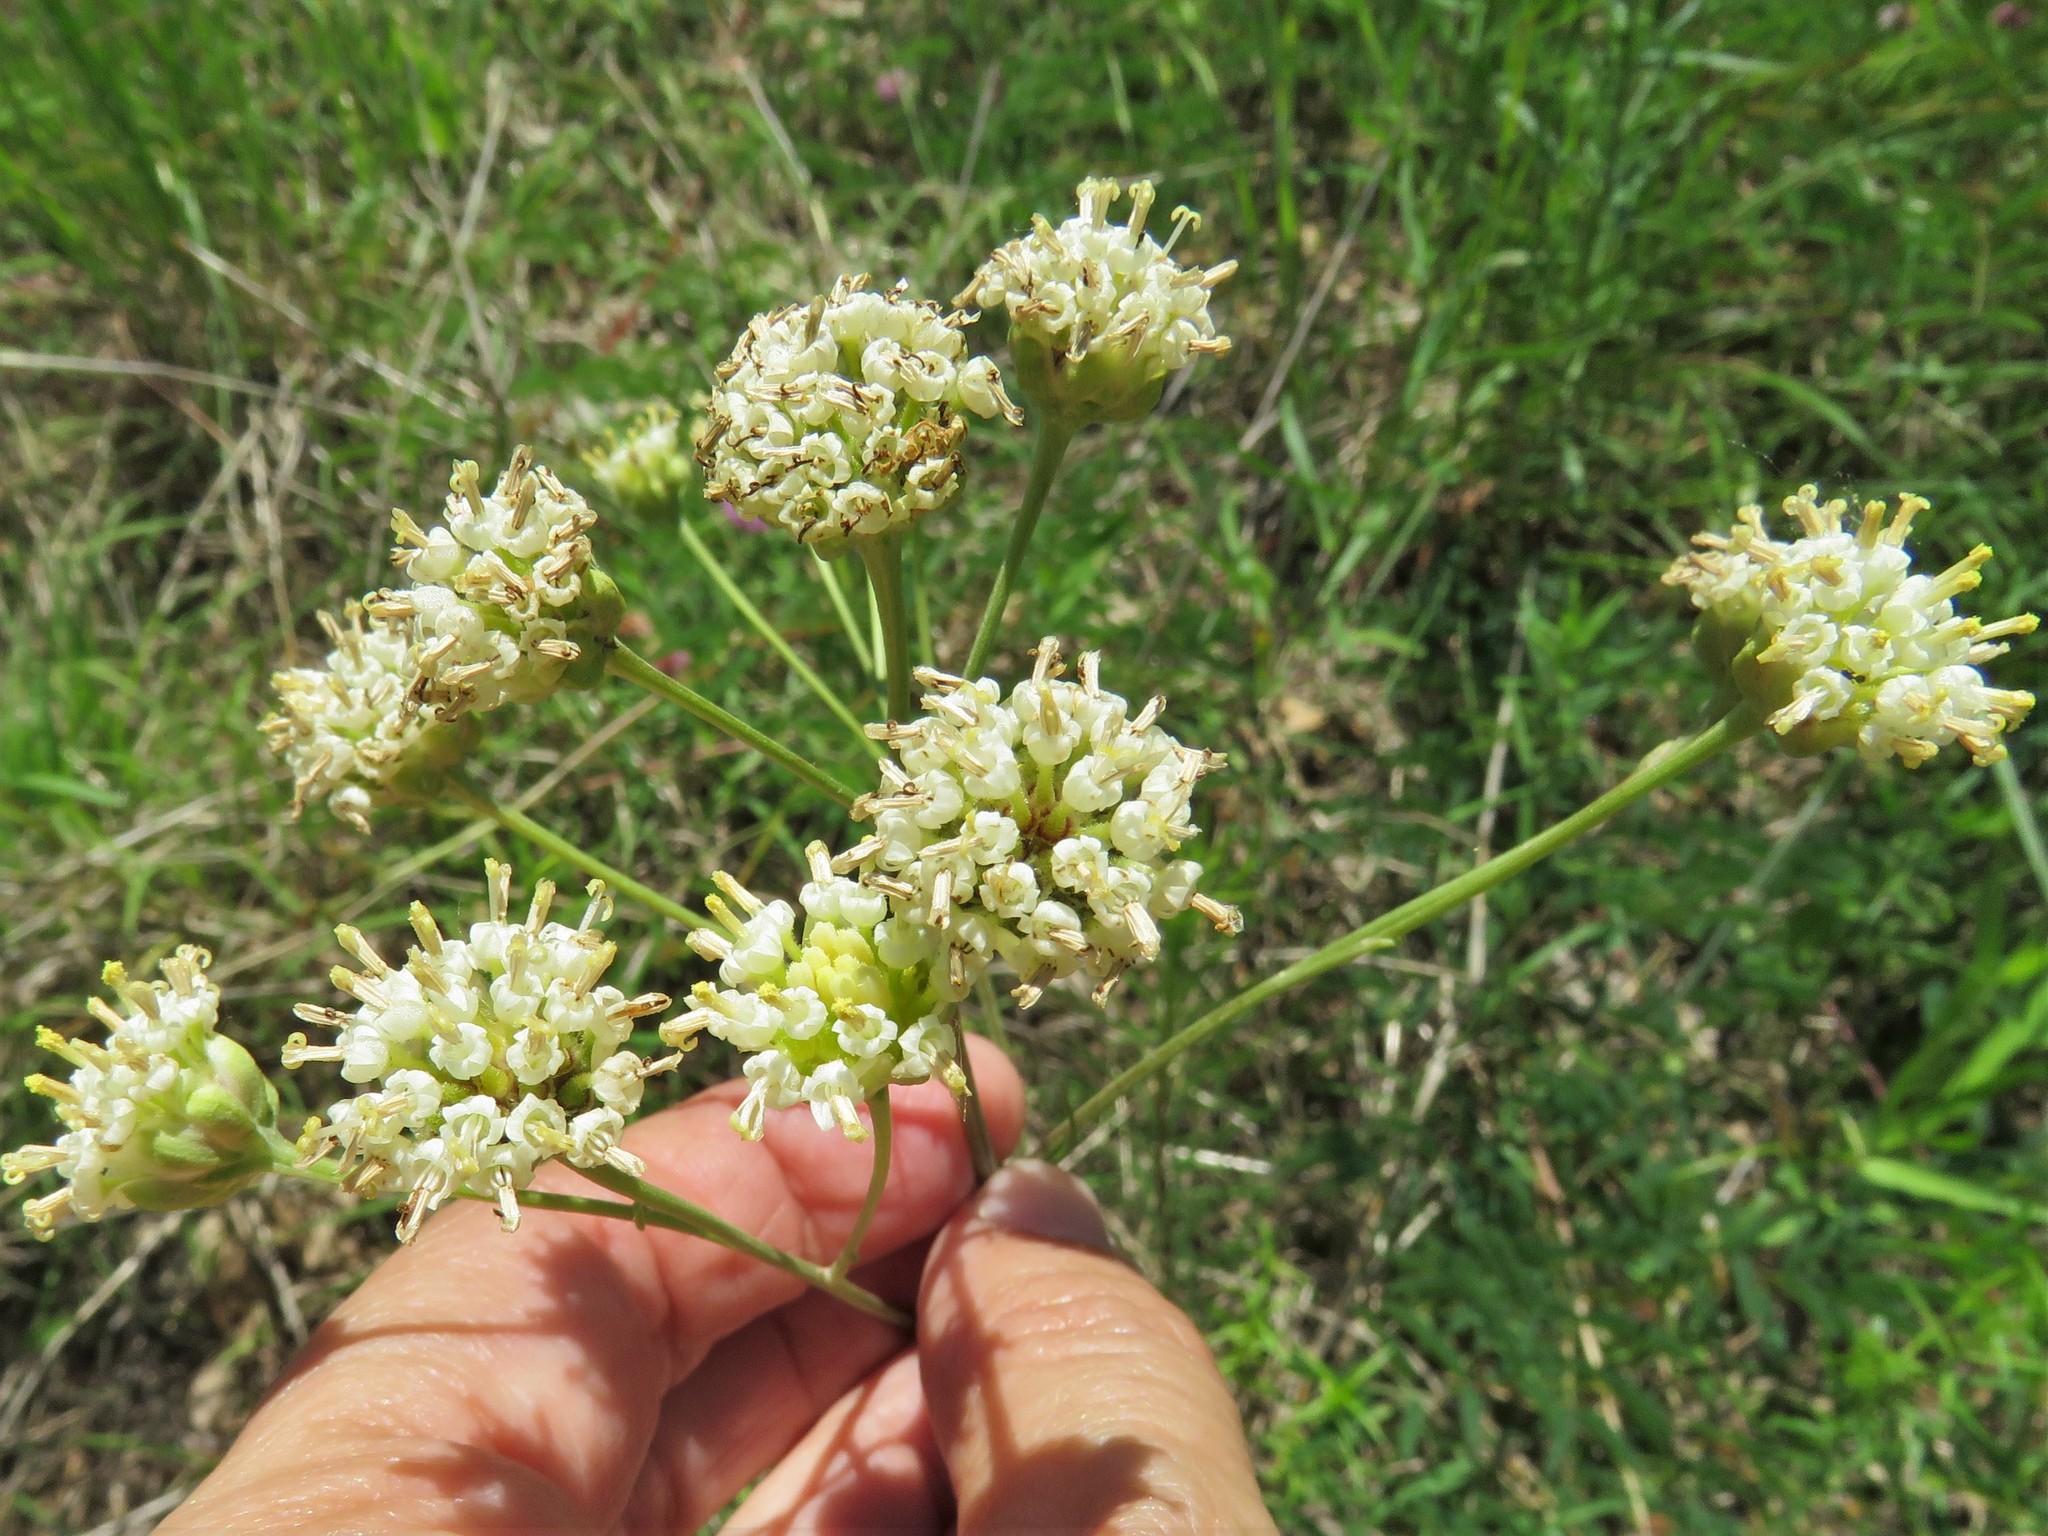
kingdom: Plantae
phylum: Tracheophyta
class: Magnoliopsida
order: Asterales
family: Asteraceae
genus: Hymenopappus
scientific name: Hymenopappus scabiosaeus
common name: Carolina woollywhite
